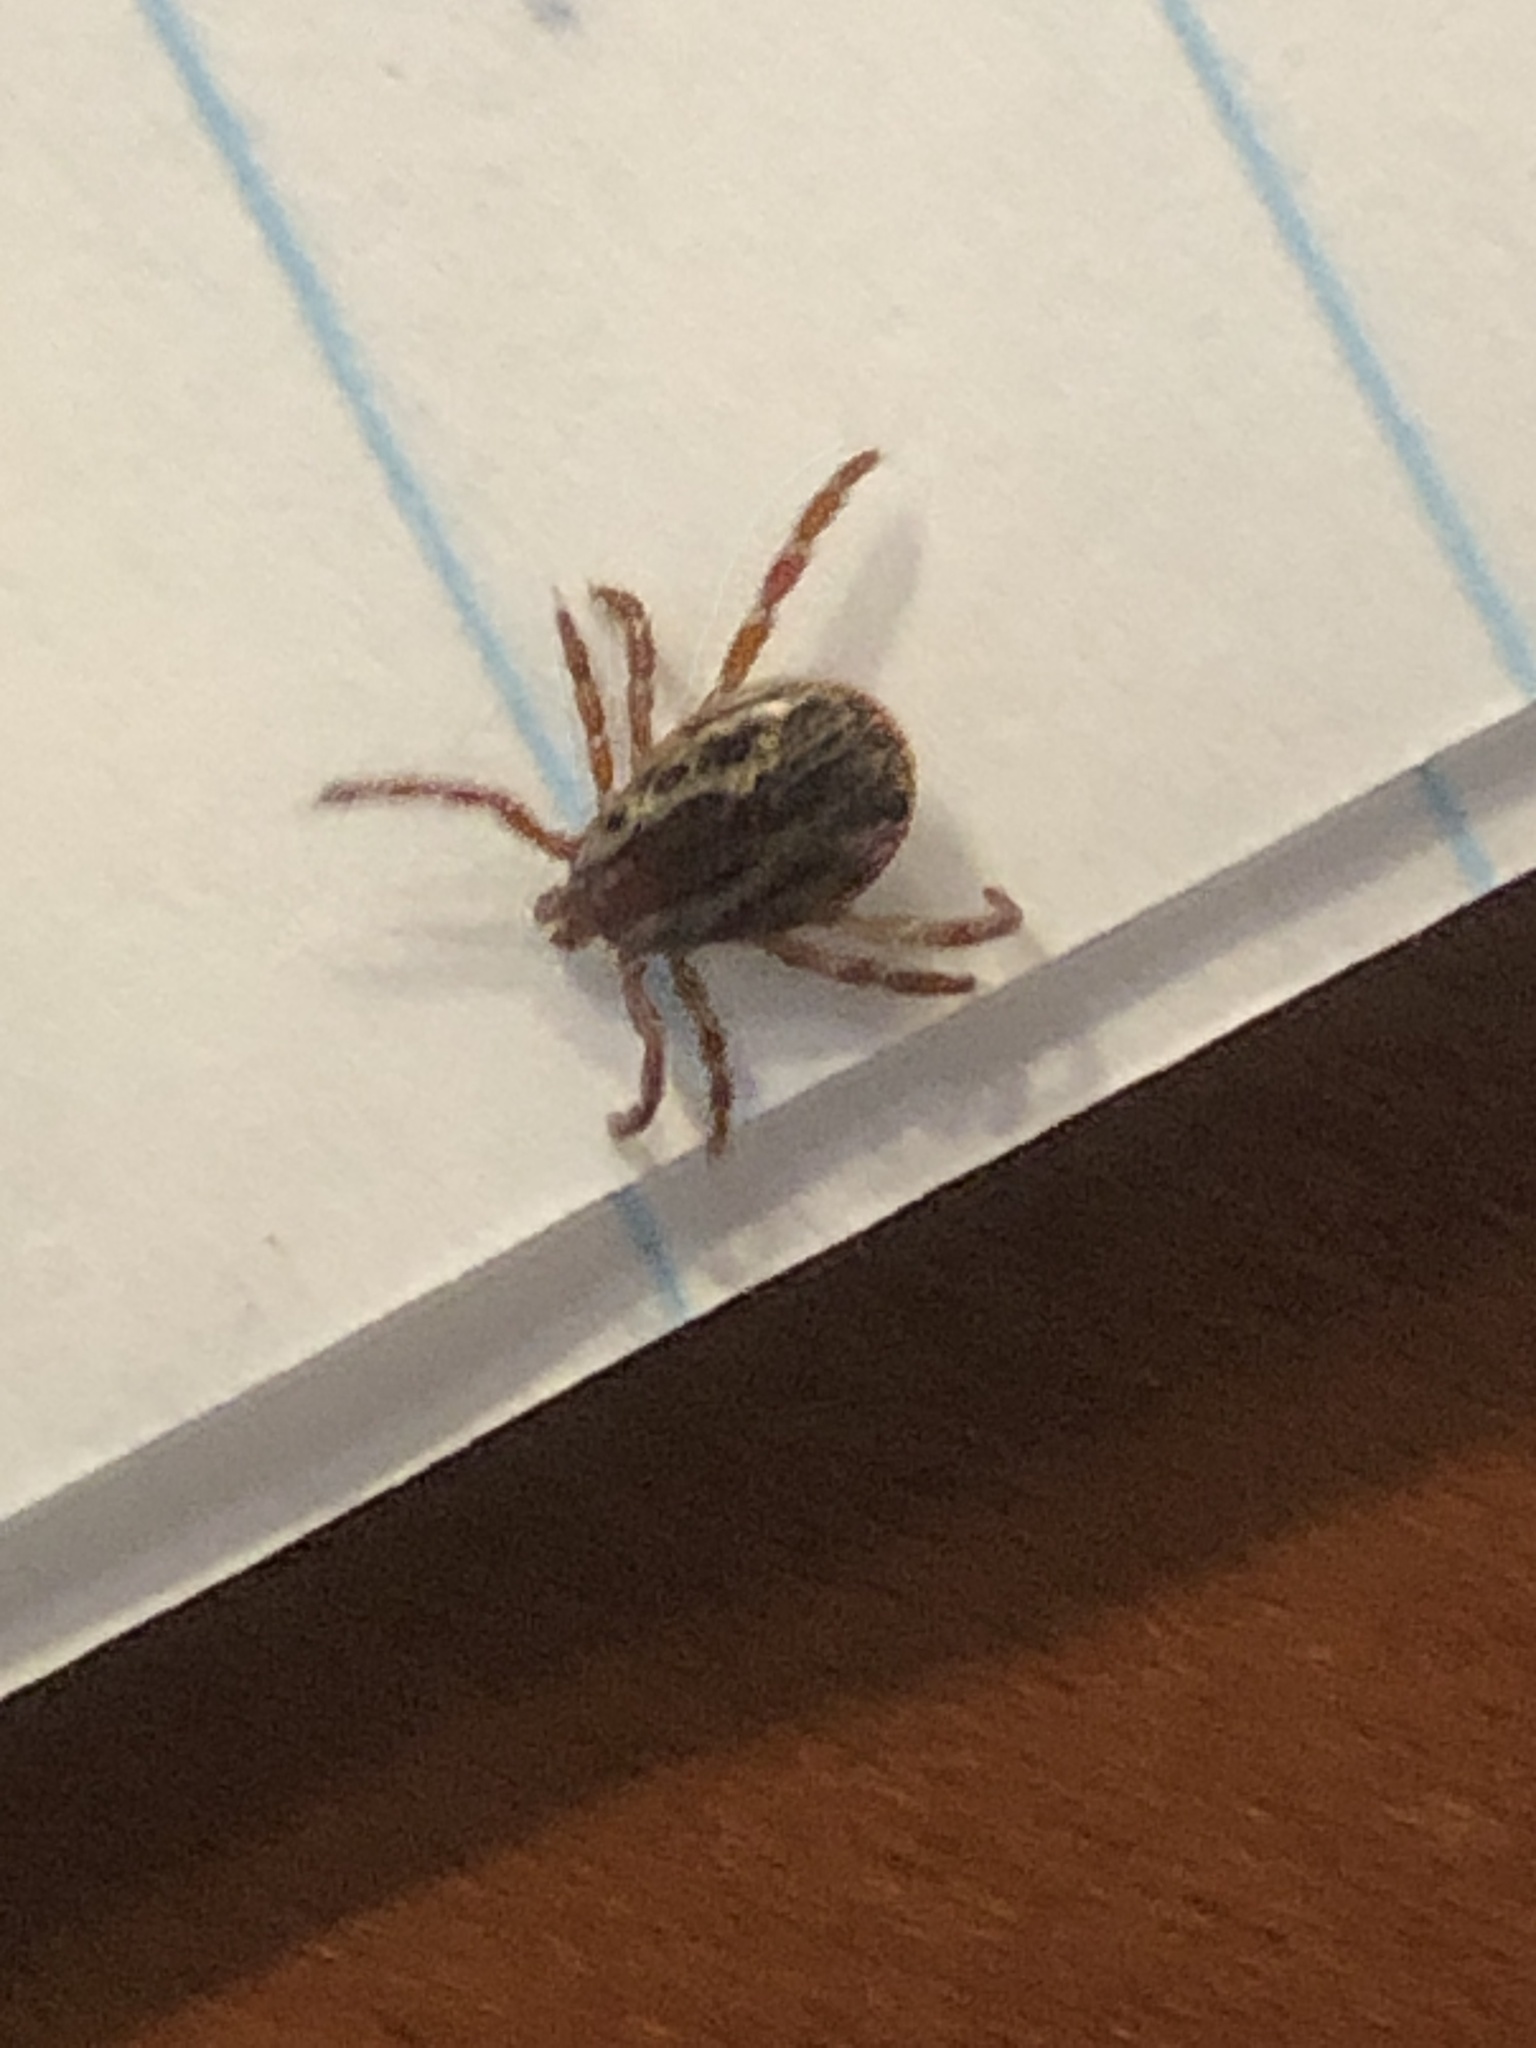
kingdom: Animalia
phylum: Arthropoda
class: Arachnida
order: Ixodida
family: Ixodidae
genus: Dermacentor
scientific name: Dermacentor variabilis
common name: American dog tick
